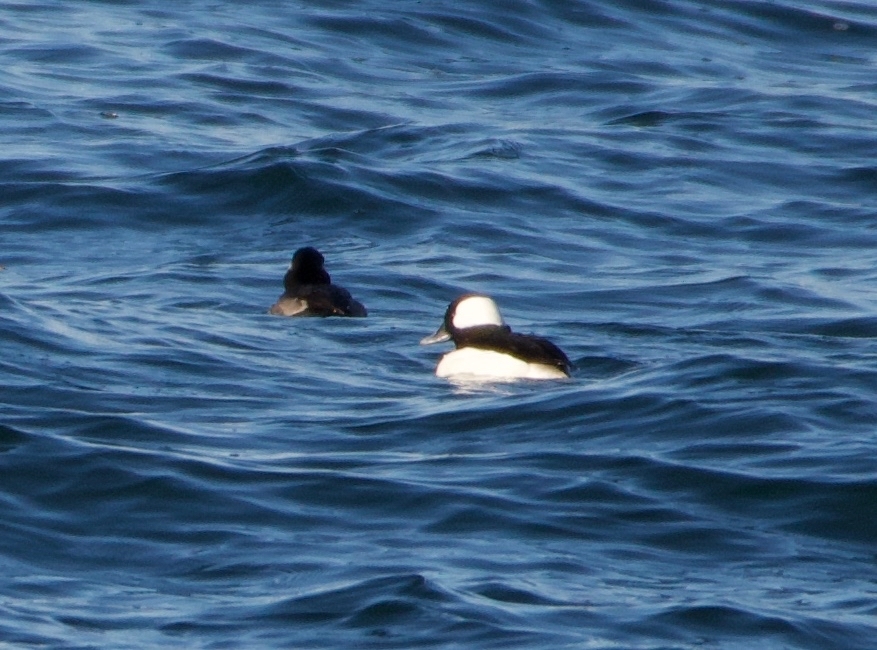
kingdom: Animalia
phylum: Chordata
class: Aves
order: Anseriformes
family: Anatidae
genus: Bucephala
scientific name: Bucephala albeola
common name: Bufflehead
